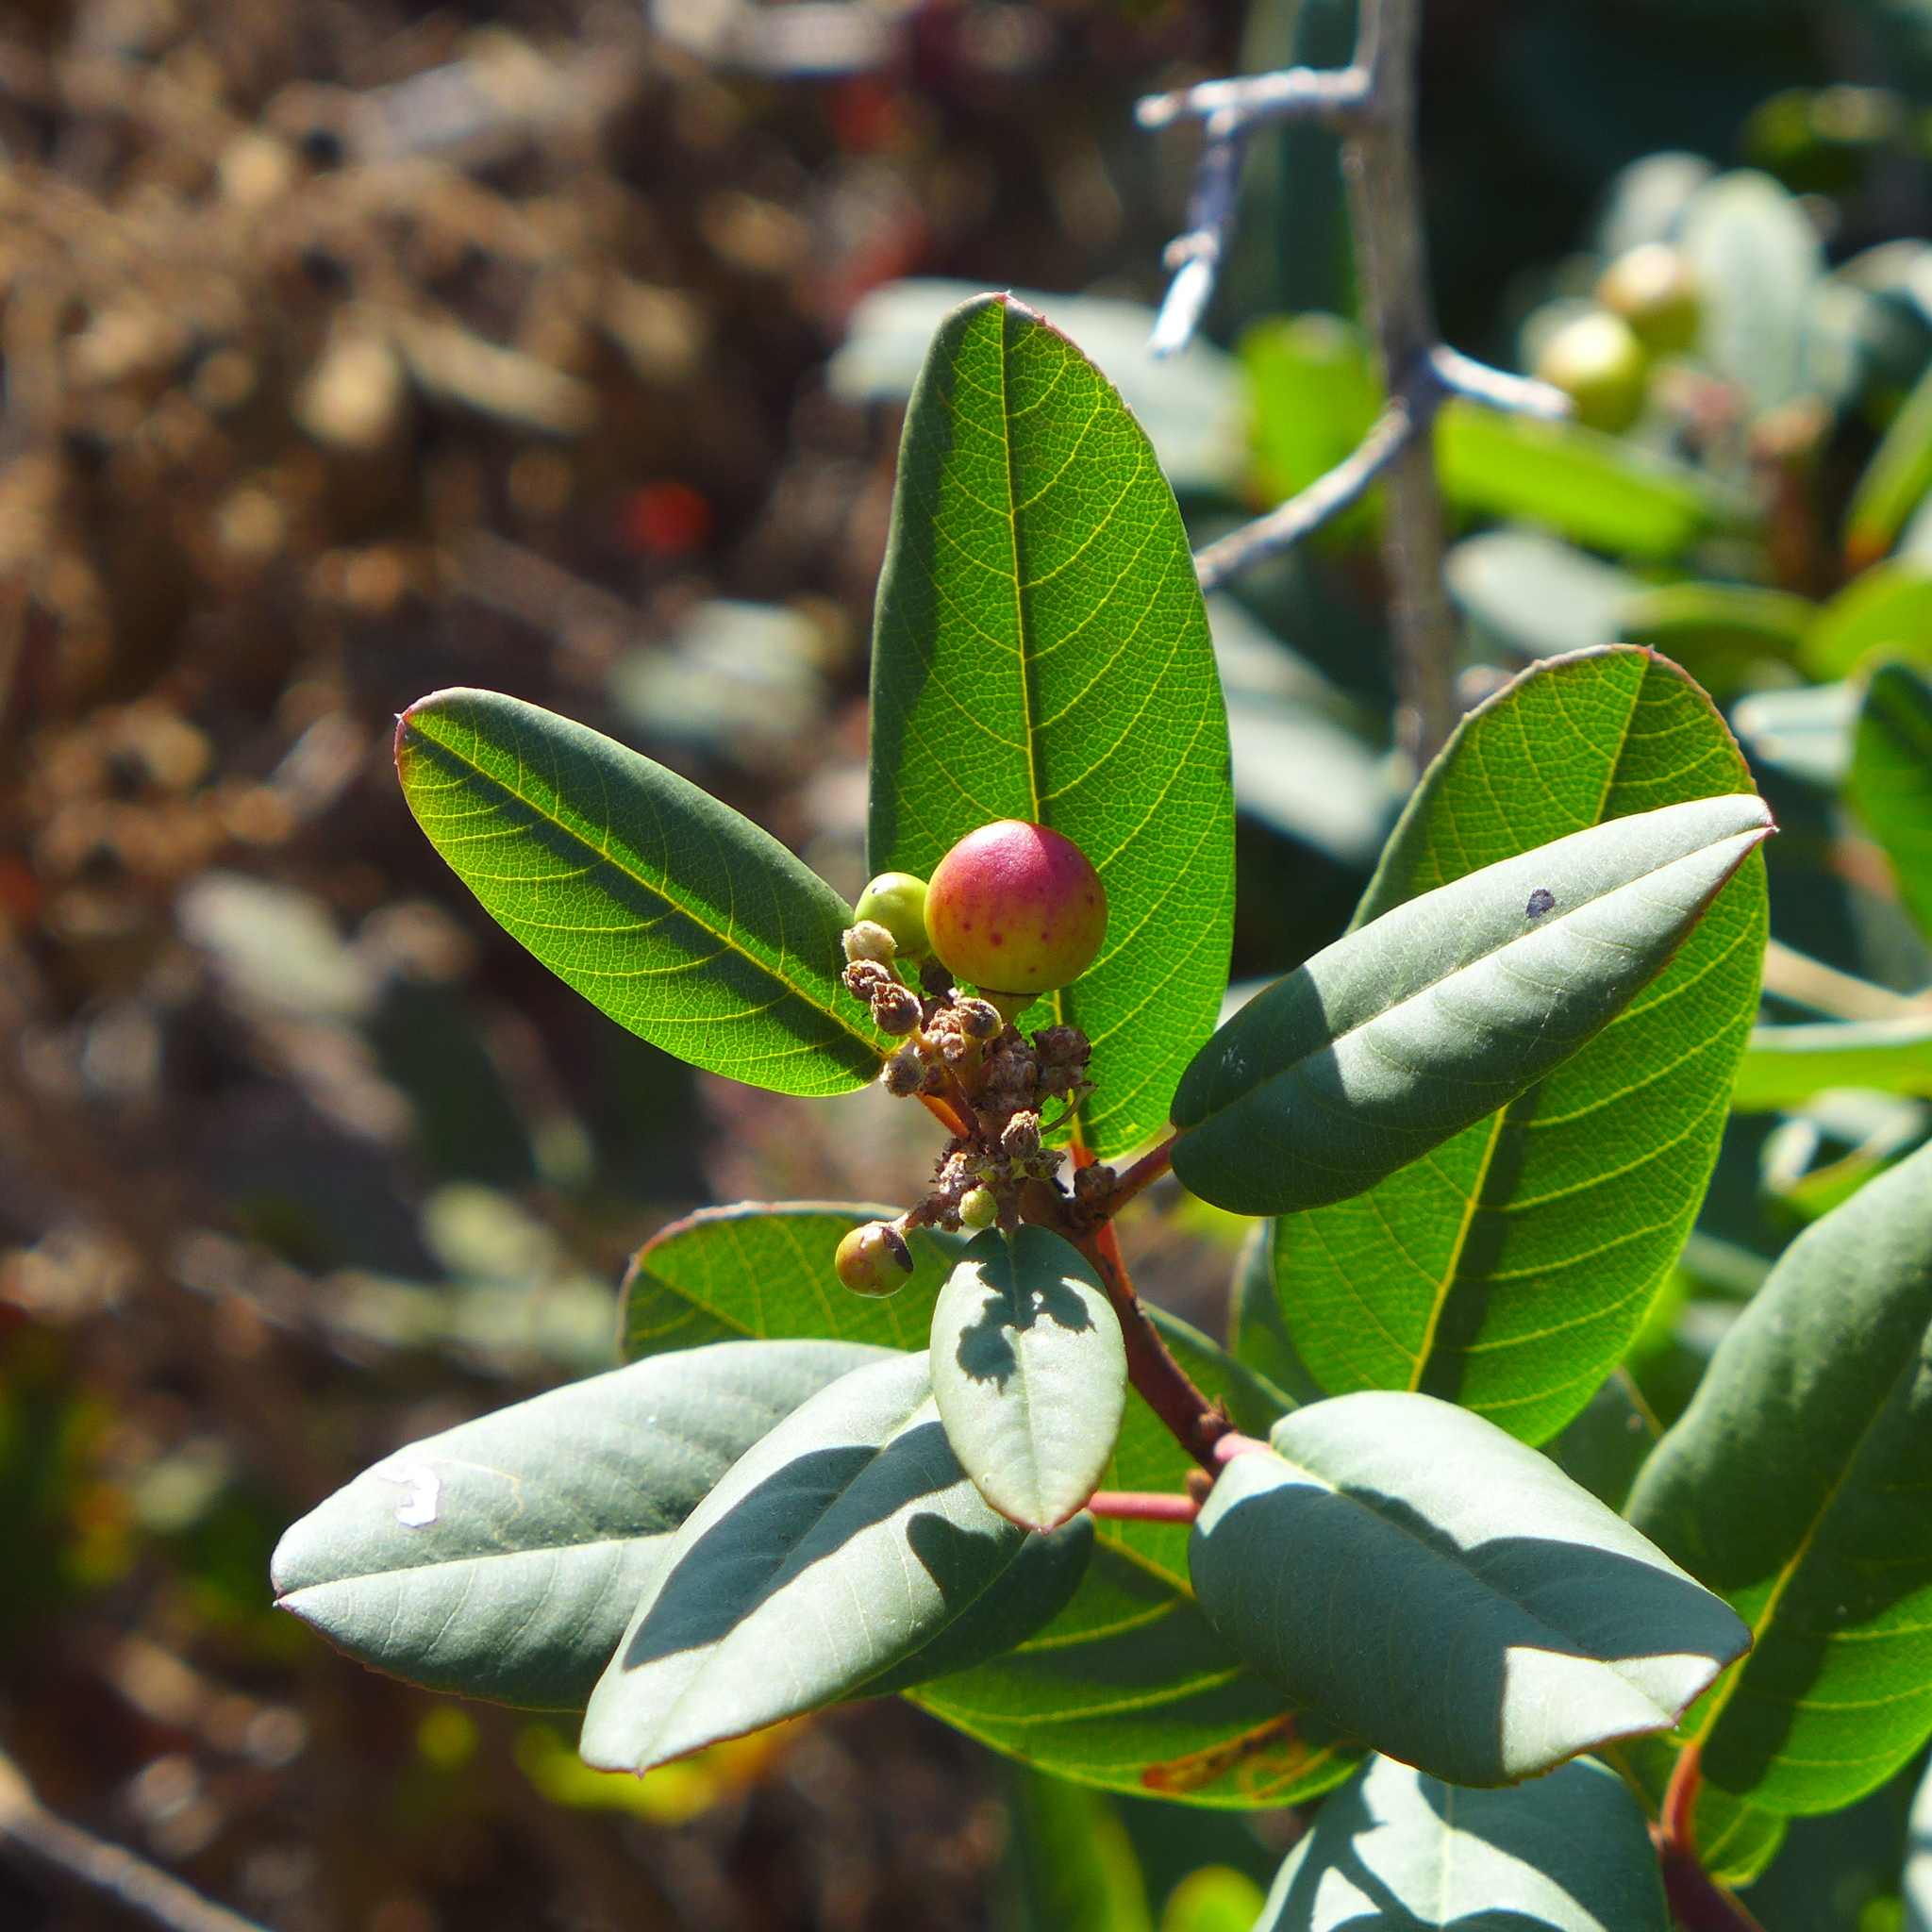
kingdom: Plantae
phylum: Tracheophyta
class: Magnoliopsida
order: Rosales
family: Rhamnaceae
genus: Frangula
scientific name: Frangula californica
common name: California buckthorn
